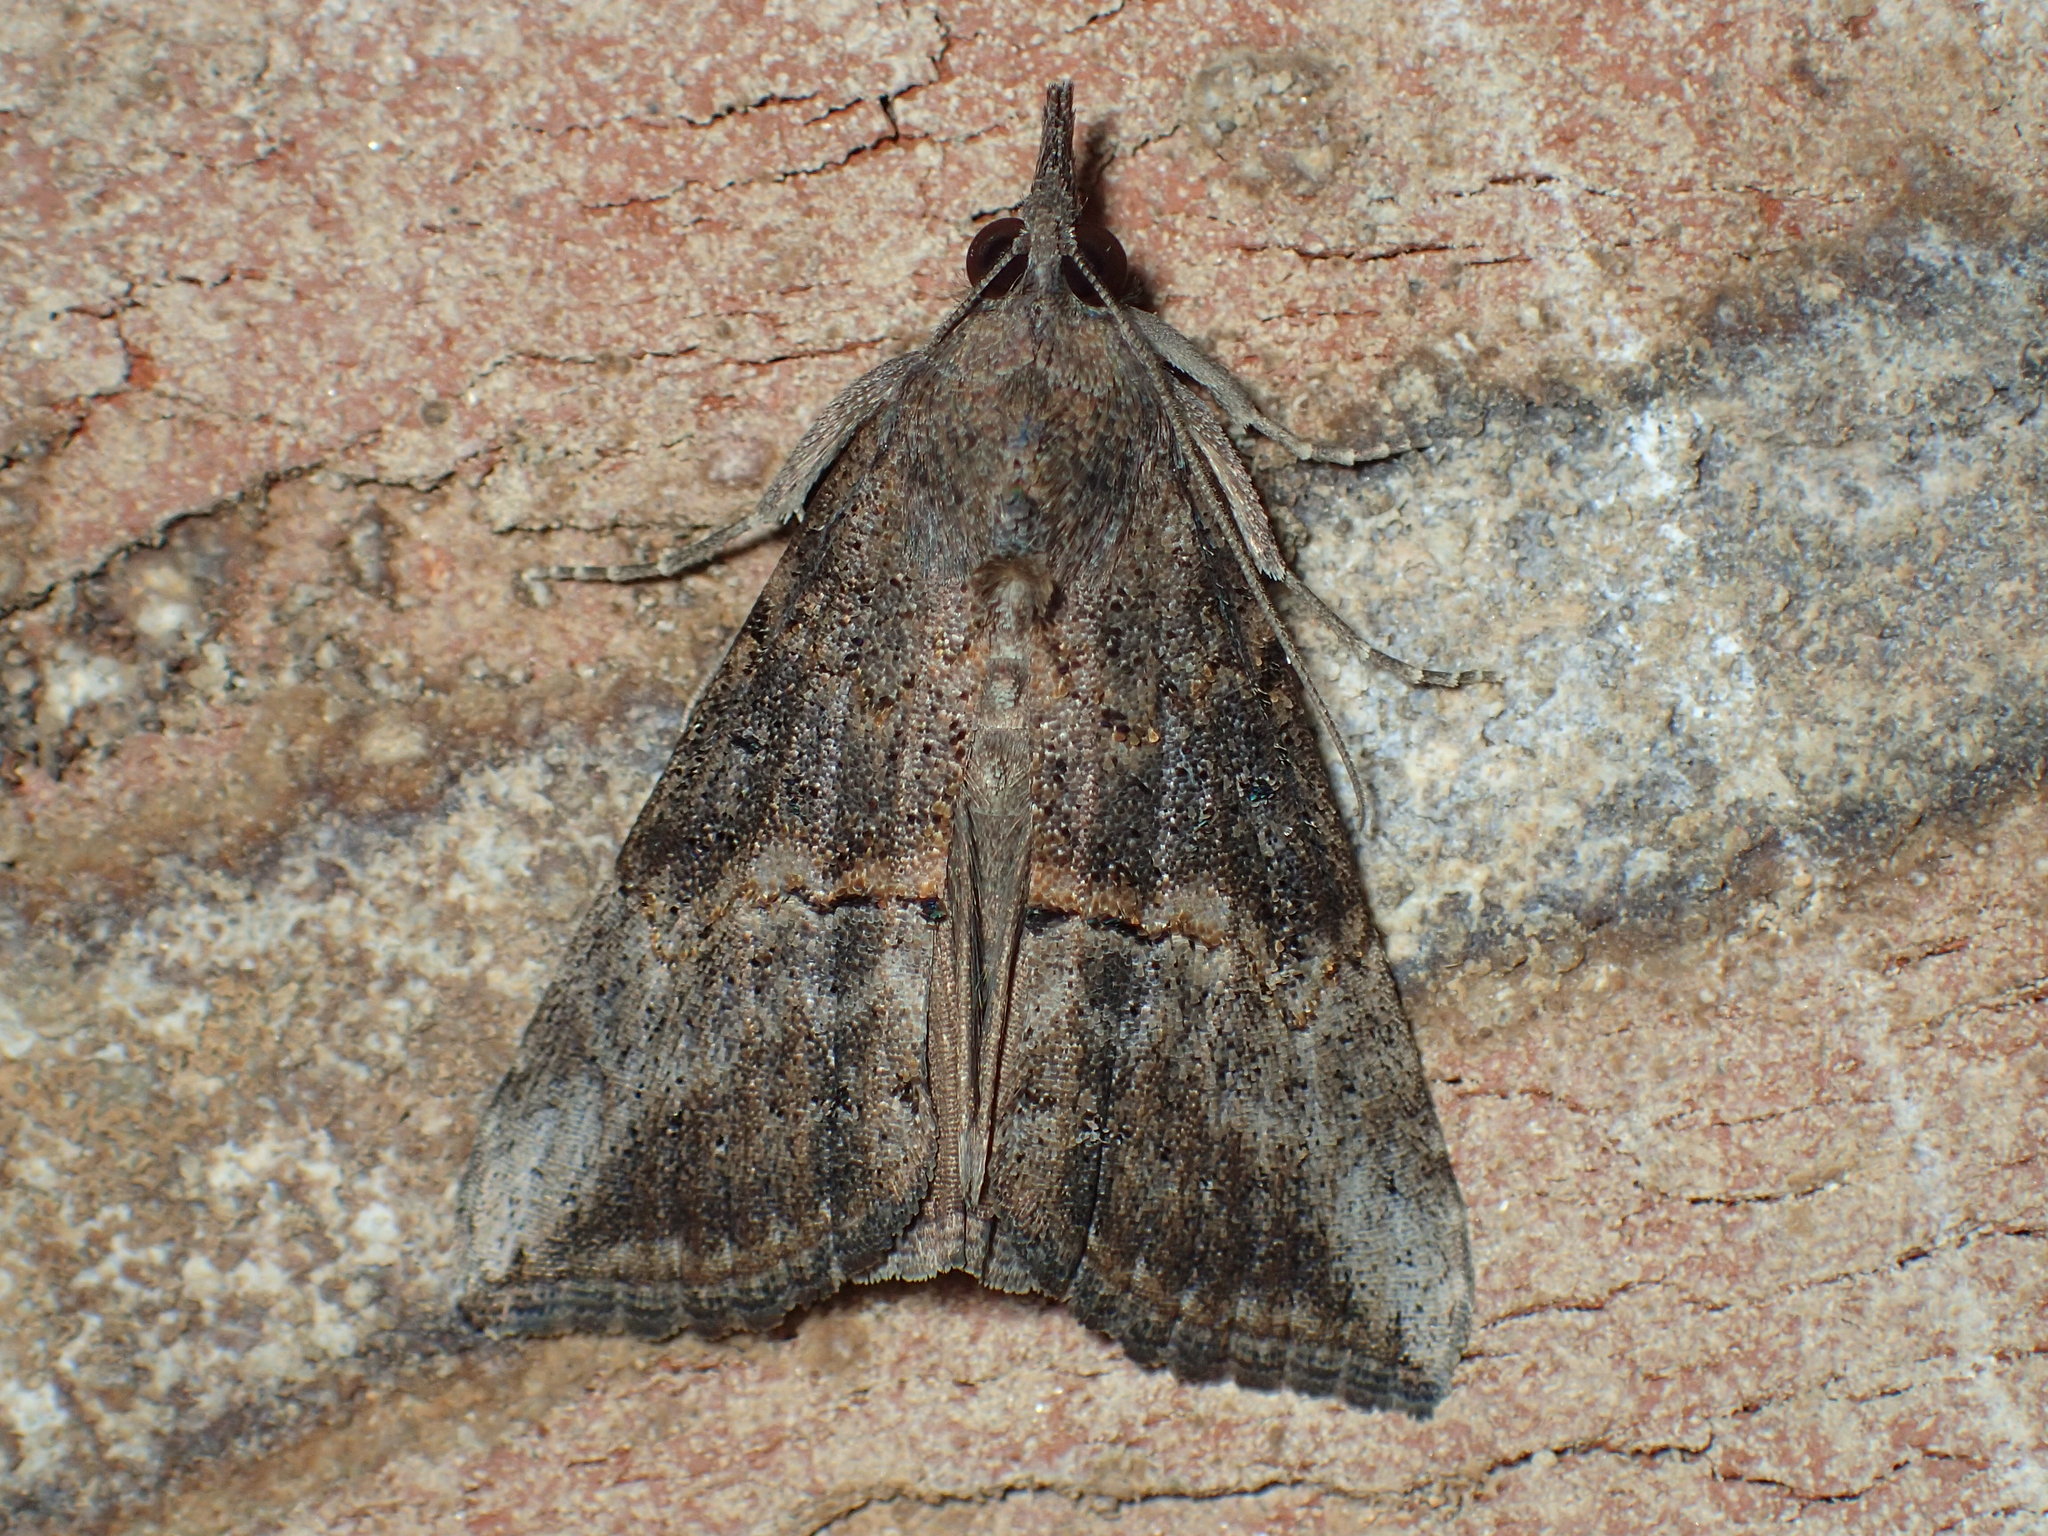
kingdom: Animalia
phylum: Arthropoda
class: Insecta
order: Lepidoptera
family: Erebidae
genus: Hypena
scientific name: Hypena scabra
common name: Green cloverworm
